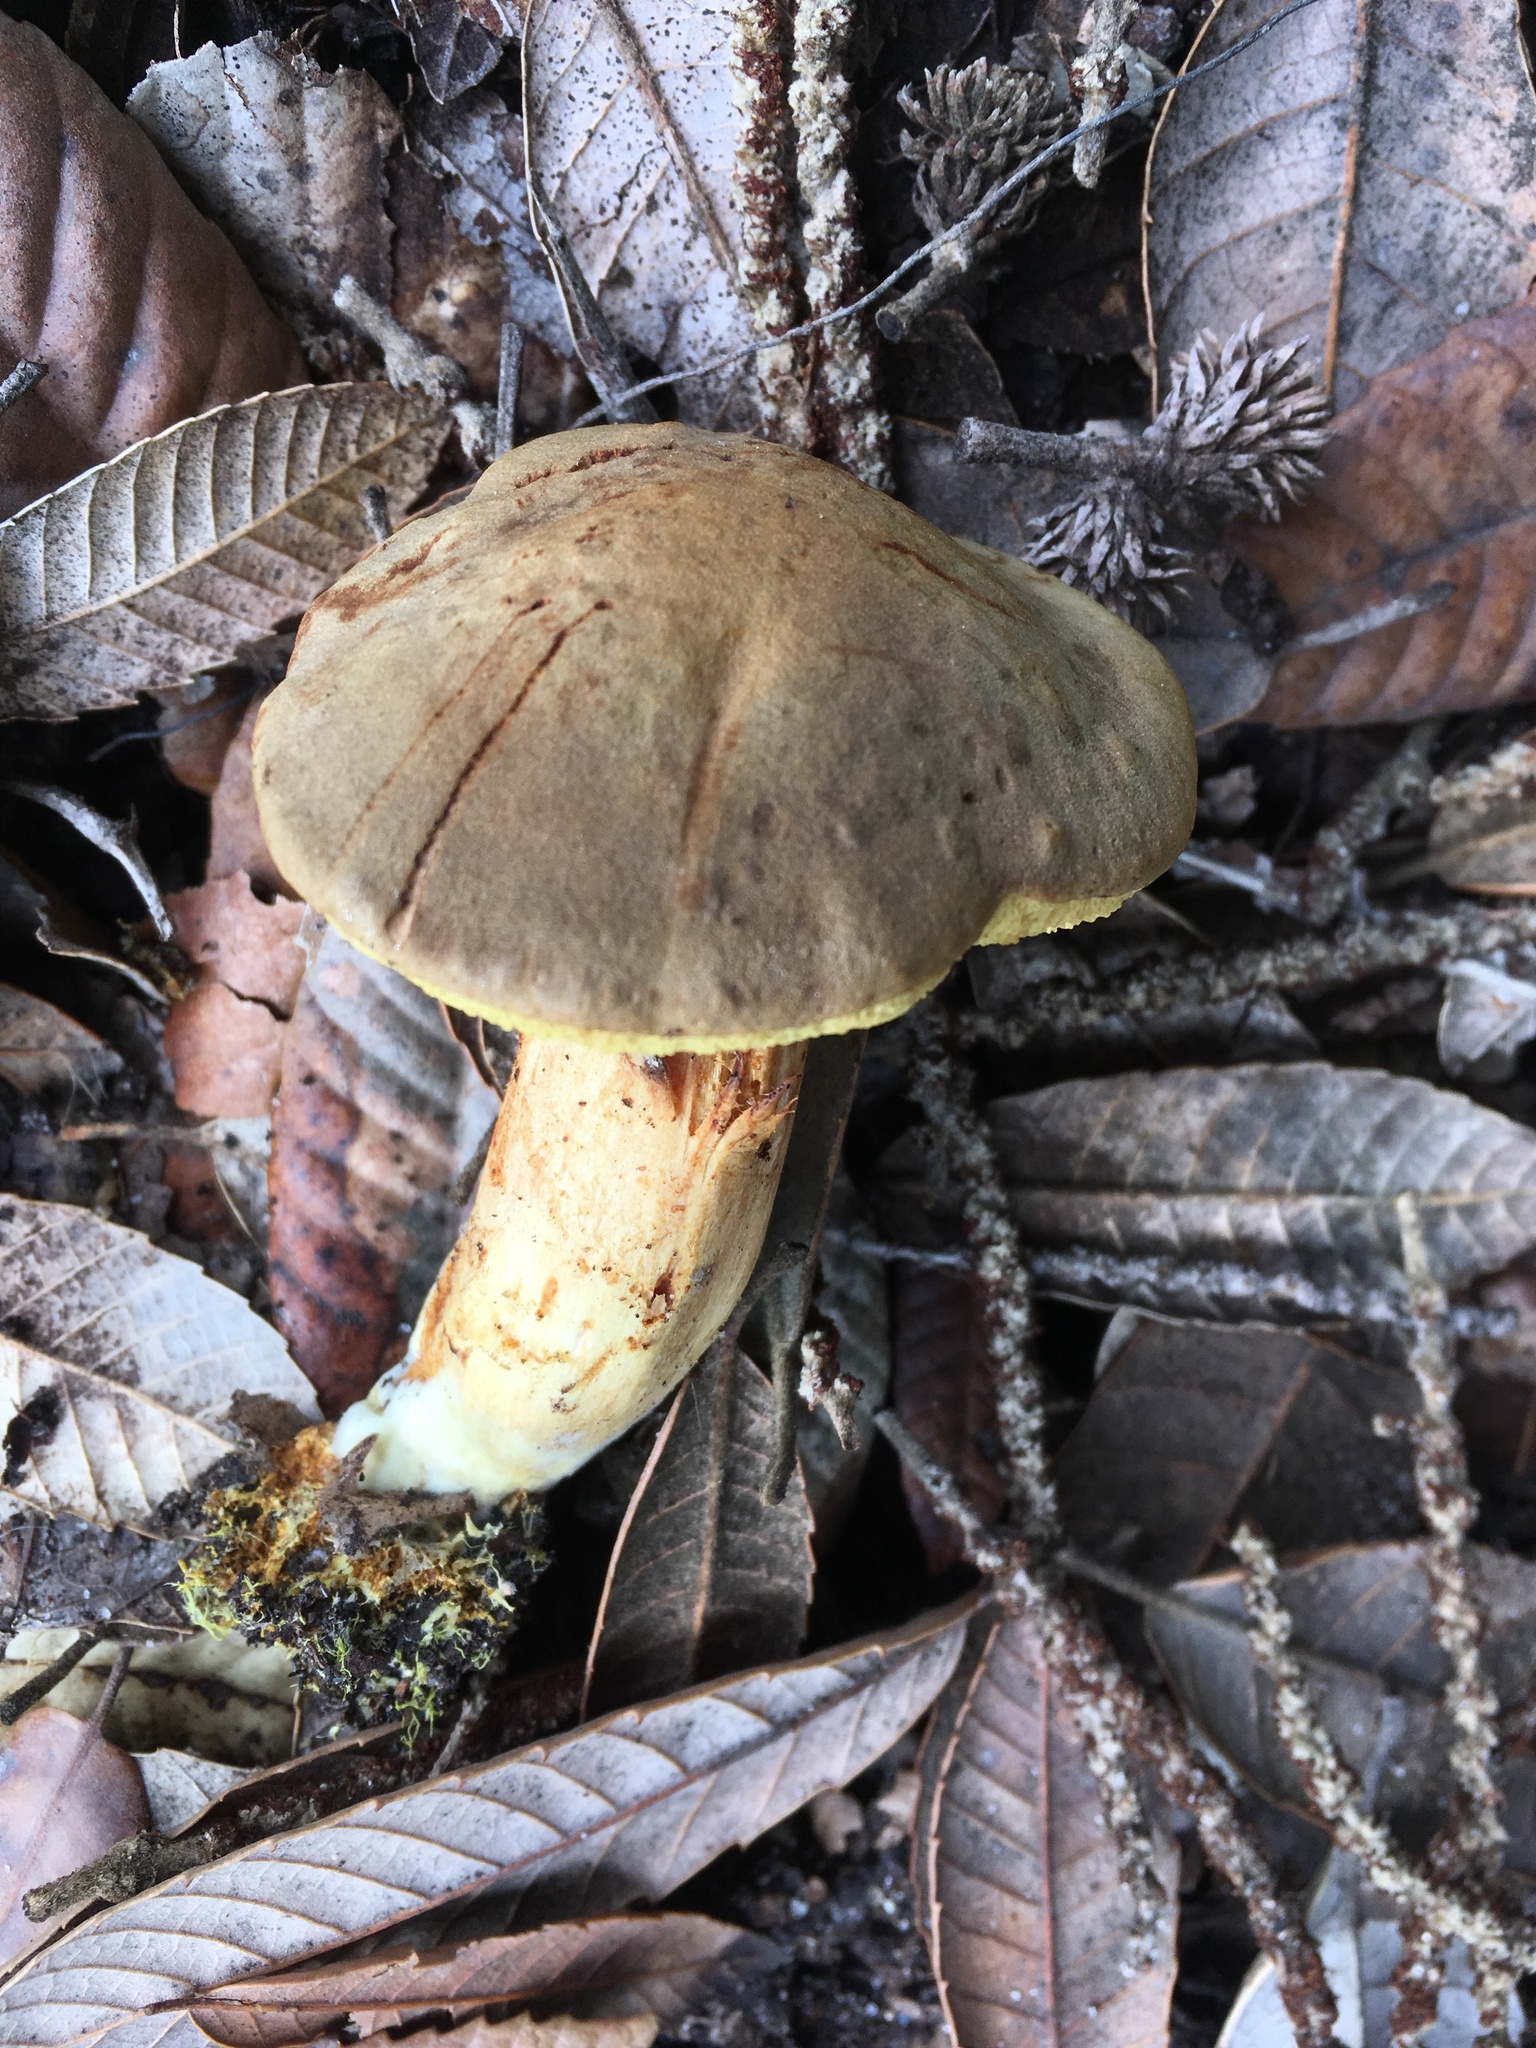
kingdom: Fungi
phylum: Basidiomycota
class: Agaricomycetes
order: Boletales
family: Boletaceae
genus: Xerocomus
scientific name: Xerocomus subtomentosus
